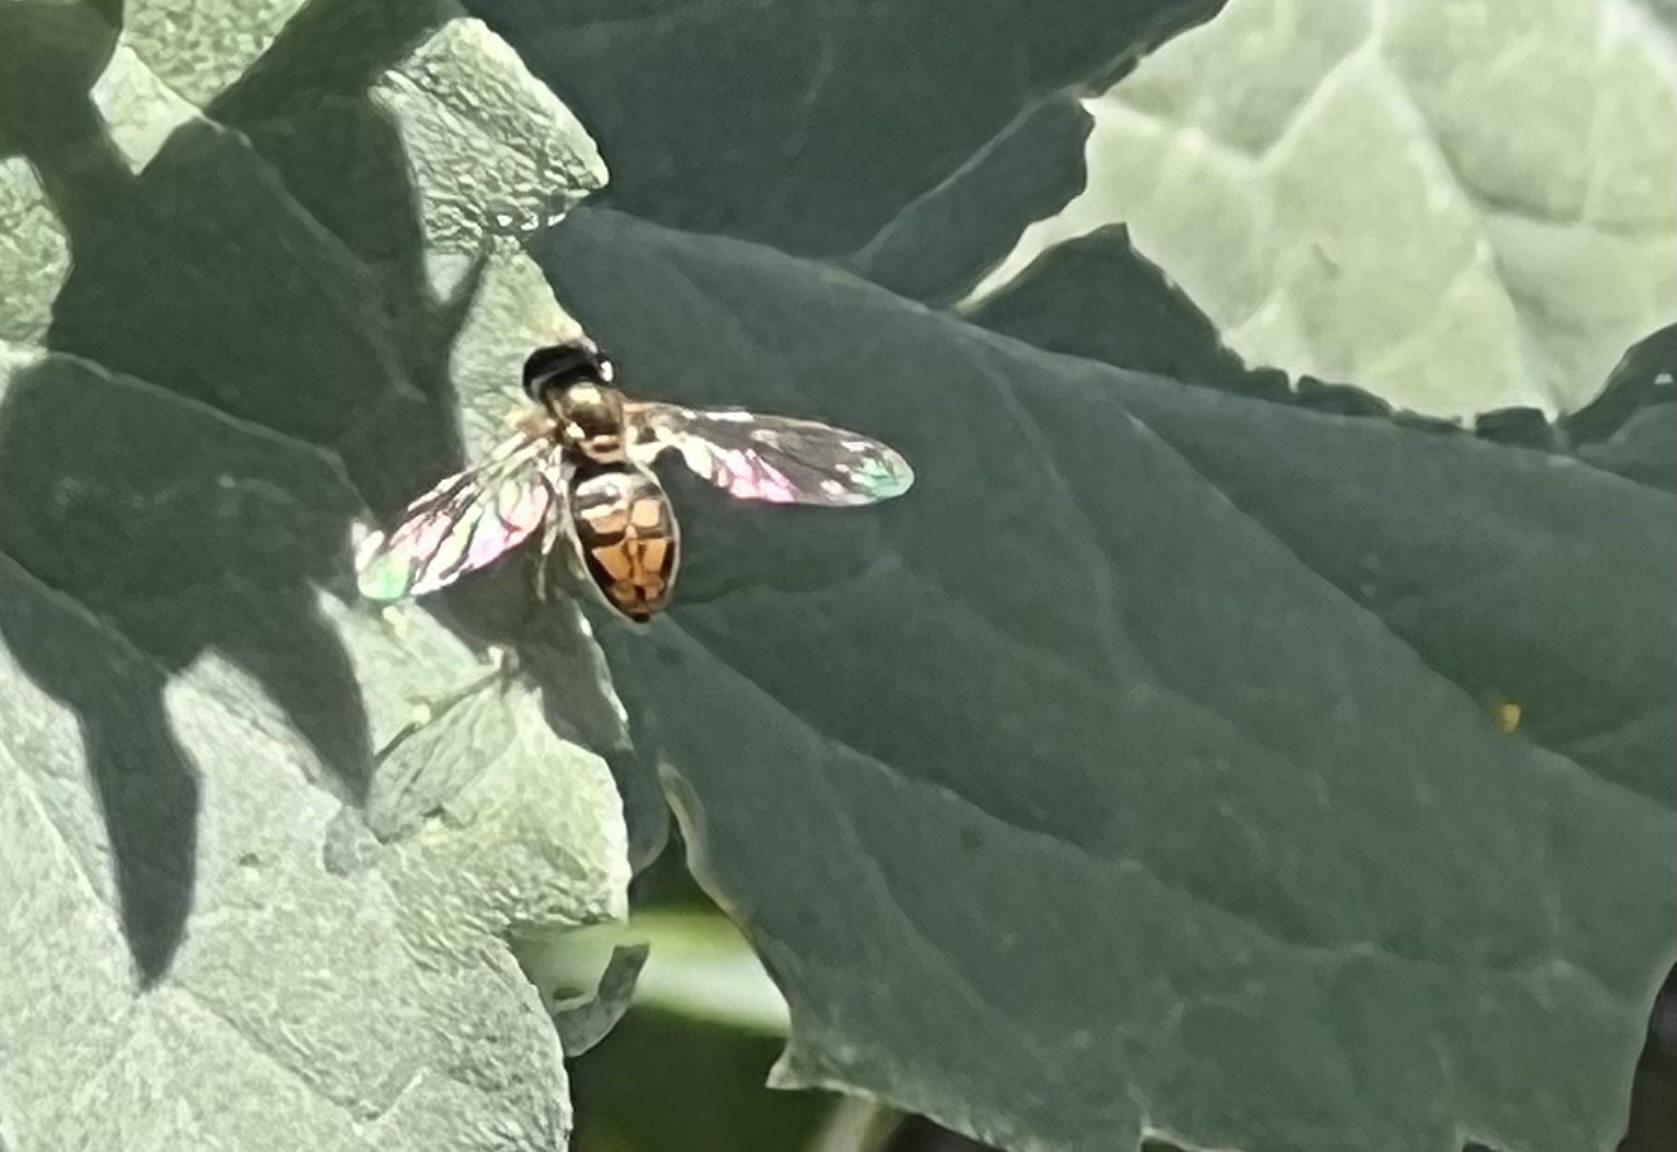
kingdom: Animalia
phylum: Arthropoda
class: Insecta
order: Diptera
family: Syrphidae
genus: Toxomerus
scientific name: Toxomerus marginatus
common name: Syrphid fly
